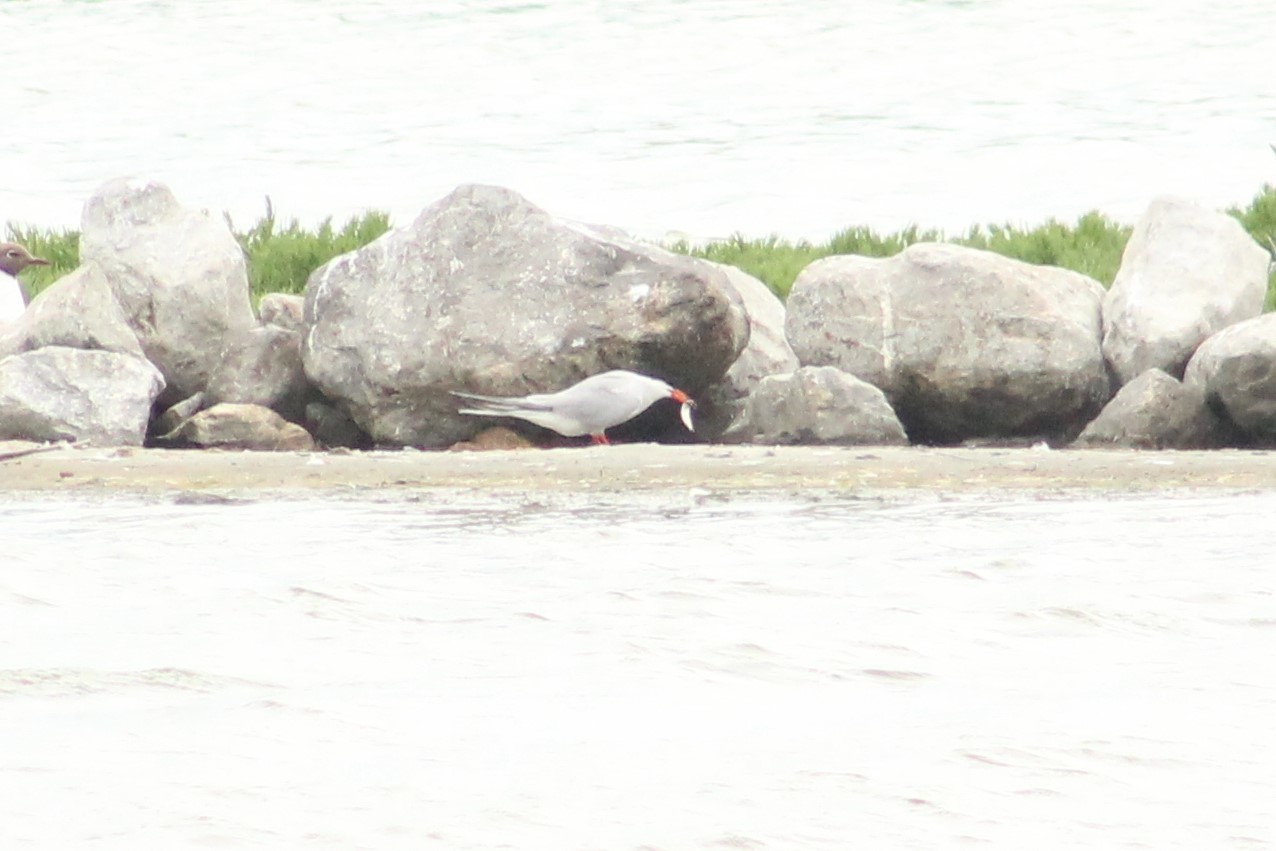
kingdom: Animalia
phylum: Chordata
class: Aves
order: Charadriiformes
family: Laridae
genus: Sterna
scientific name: Sterna hirundo
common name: Common tern
